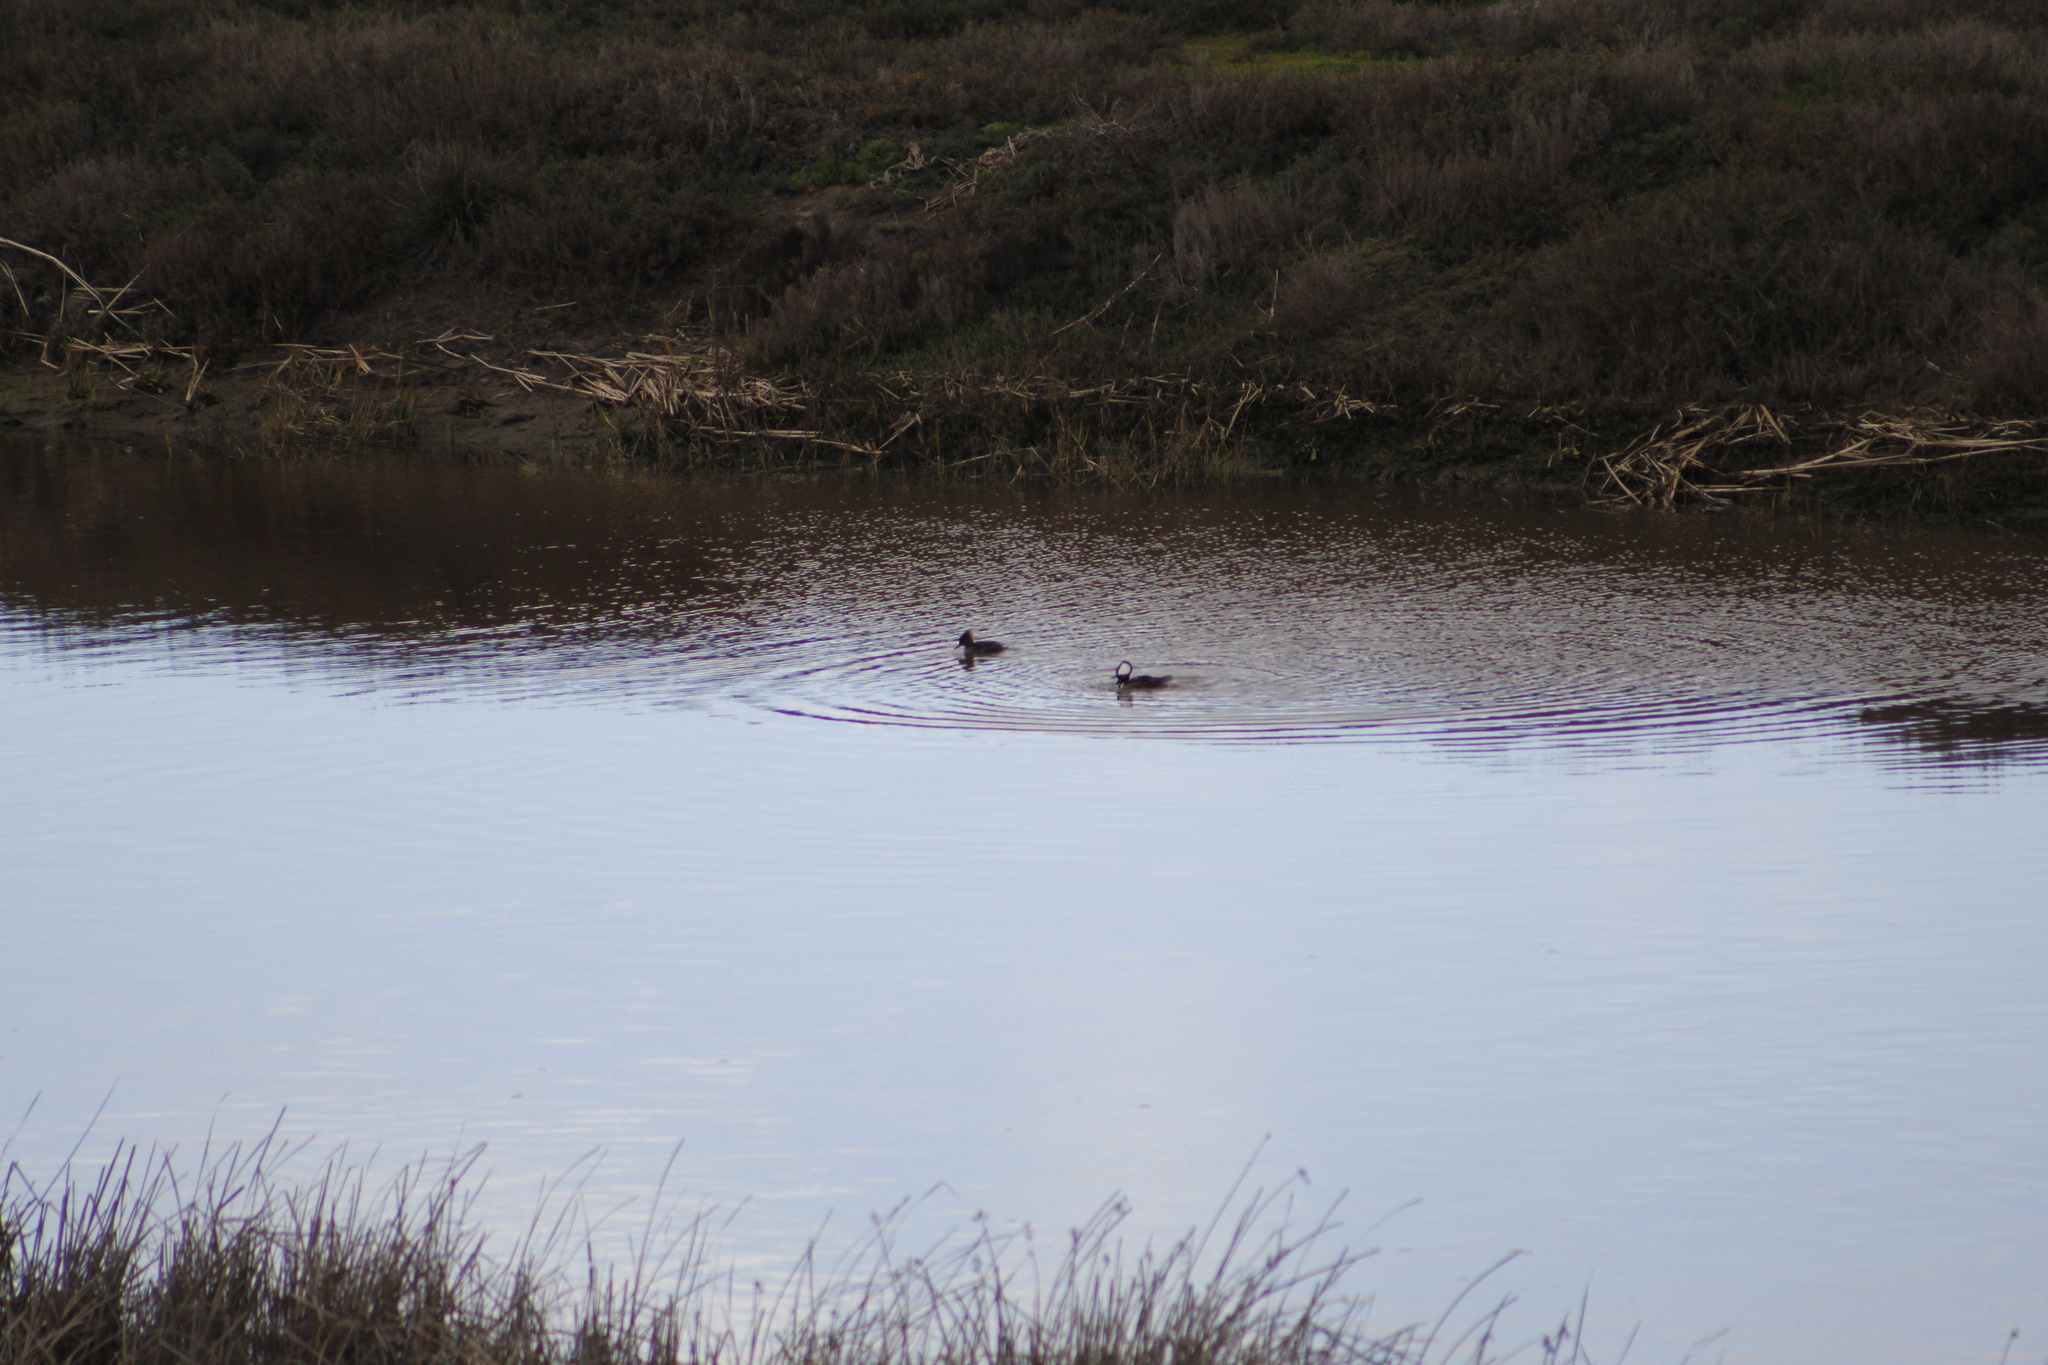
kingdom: Animalia
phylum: Chordata
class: Aves
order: Anseriformes
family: Anatidae
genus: Lophodytes
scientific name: Lophodytes cucullatus
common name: Hooded merganser
